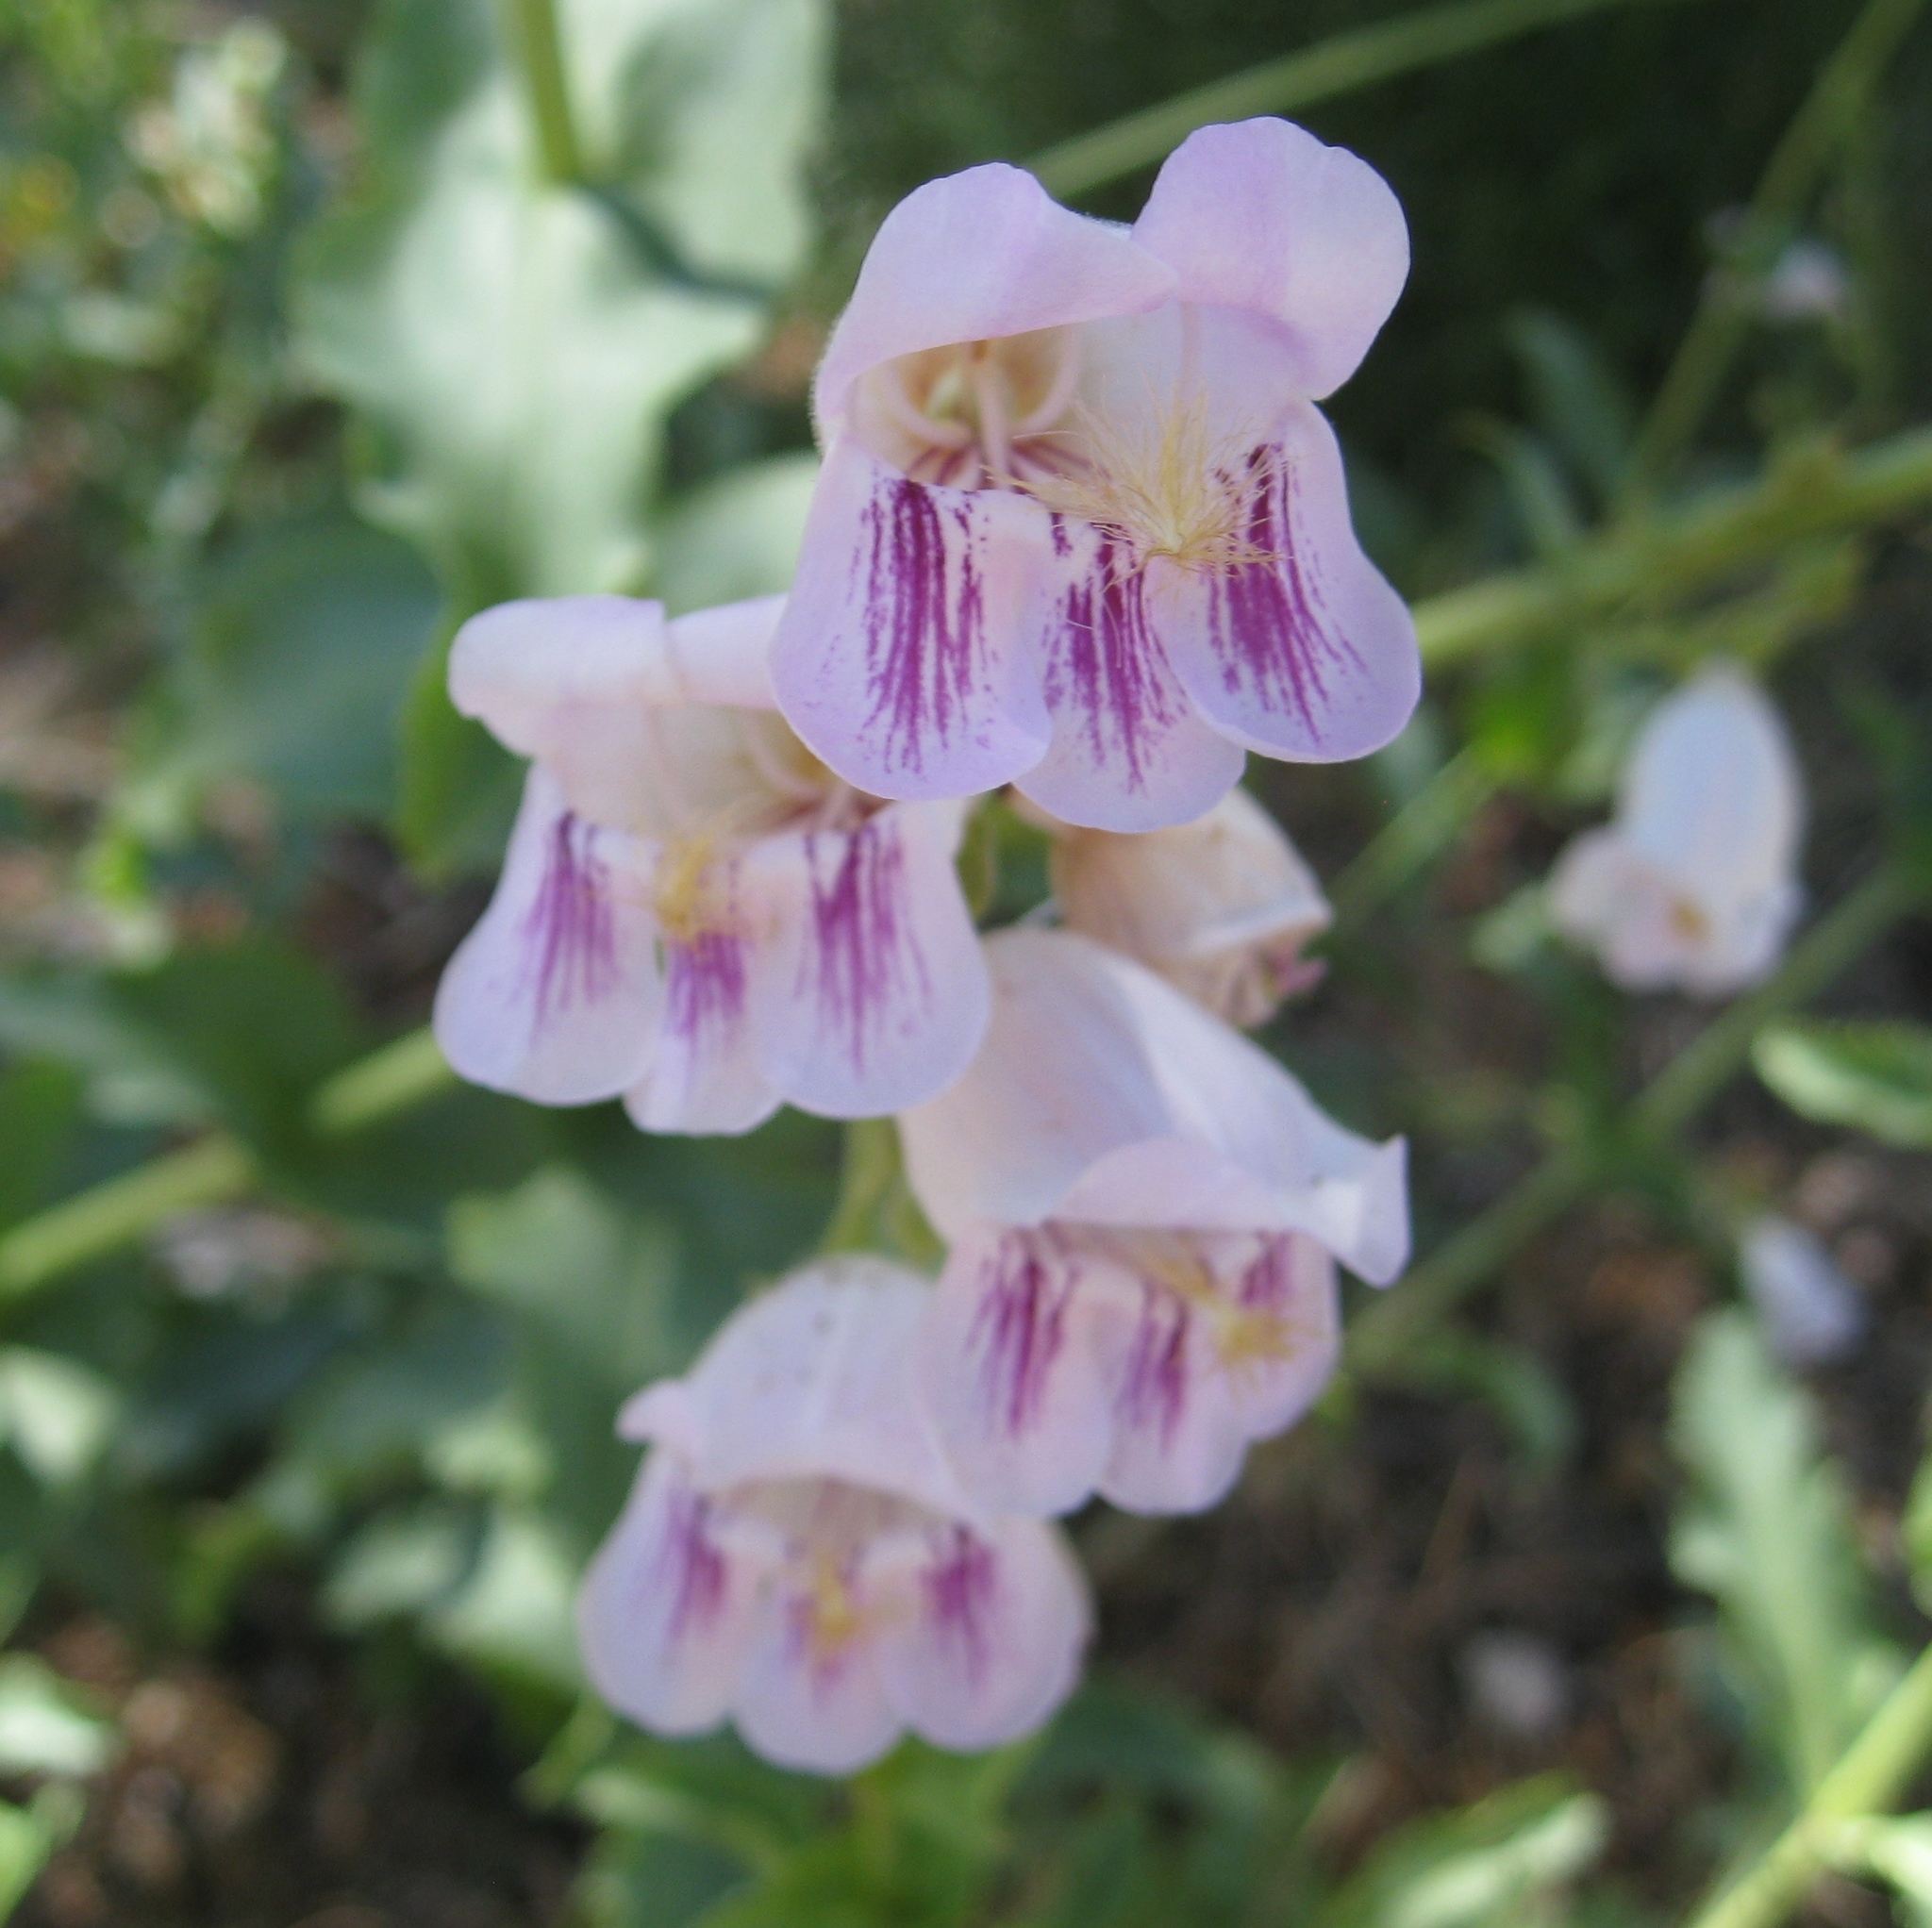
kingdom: Plantae
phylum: Tracheophyta
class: Magnoliopsida
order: Lamiales
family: Plantaginaceae
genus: Penstemon
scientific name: Penstemon palmeri
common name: Palmer penstemon
